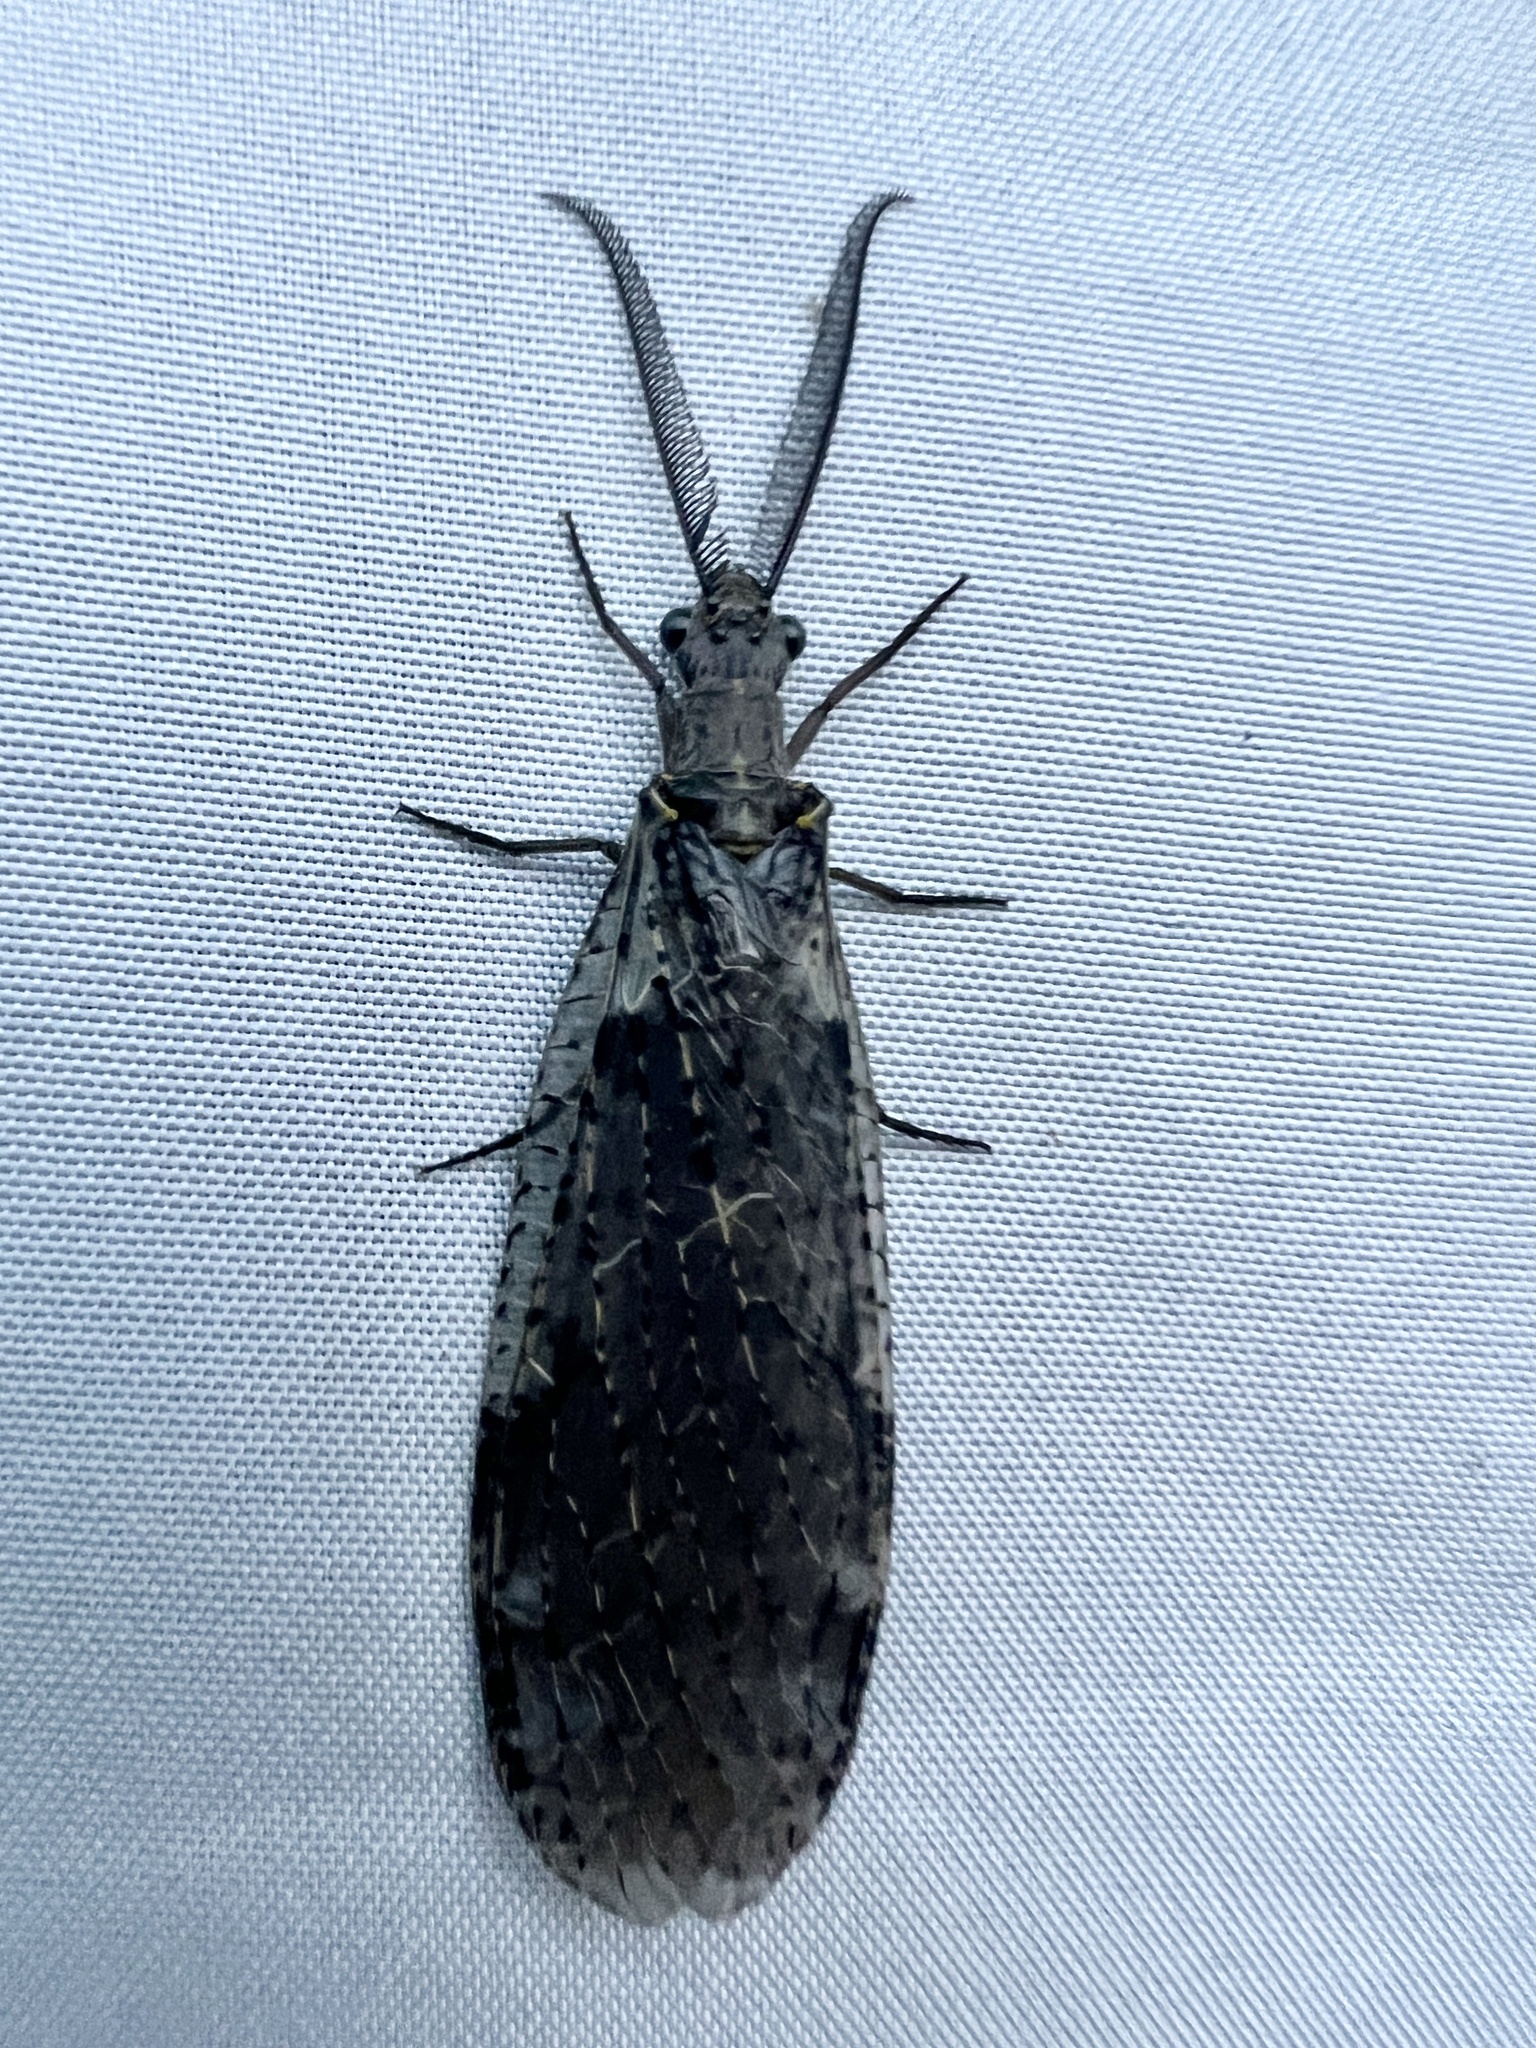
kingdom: Animalia
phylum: Arthropoda
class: Insecta
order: Megaloptera
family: Corydalidae
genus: Chauliodes
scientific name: Chauliodes rastricornis
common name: Spring fishfly
